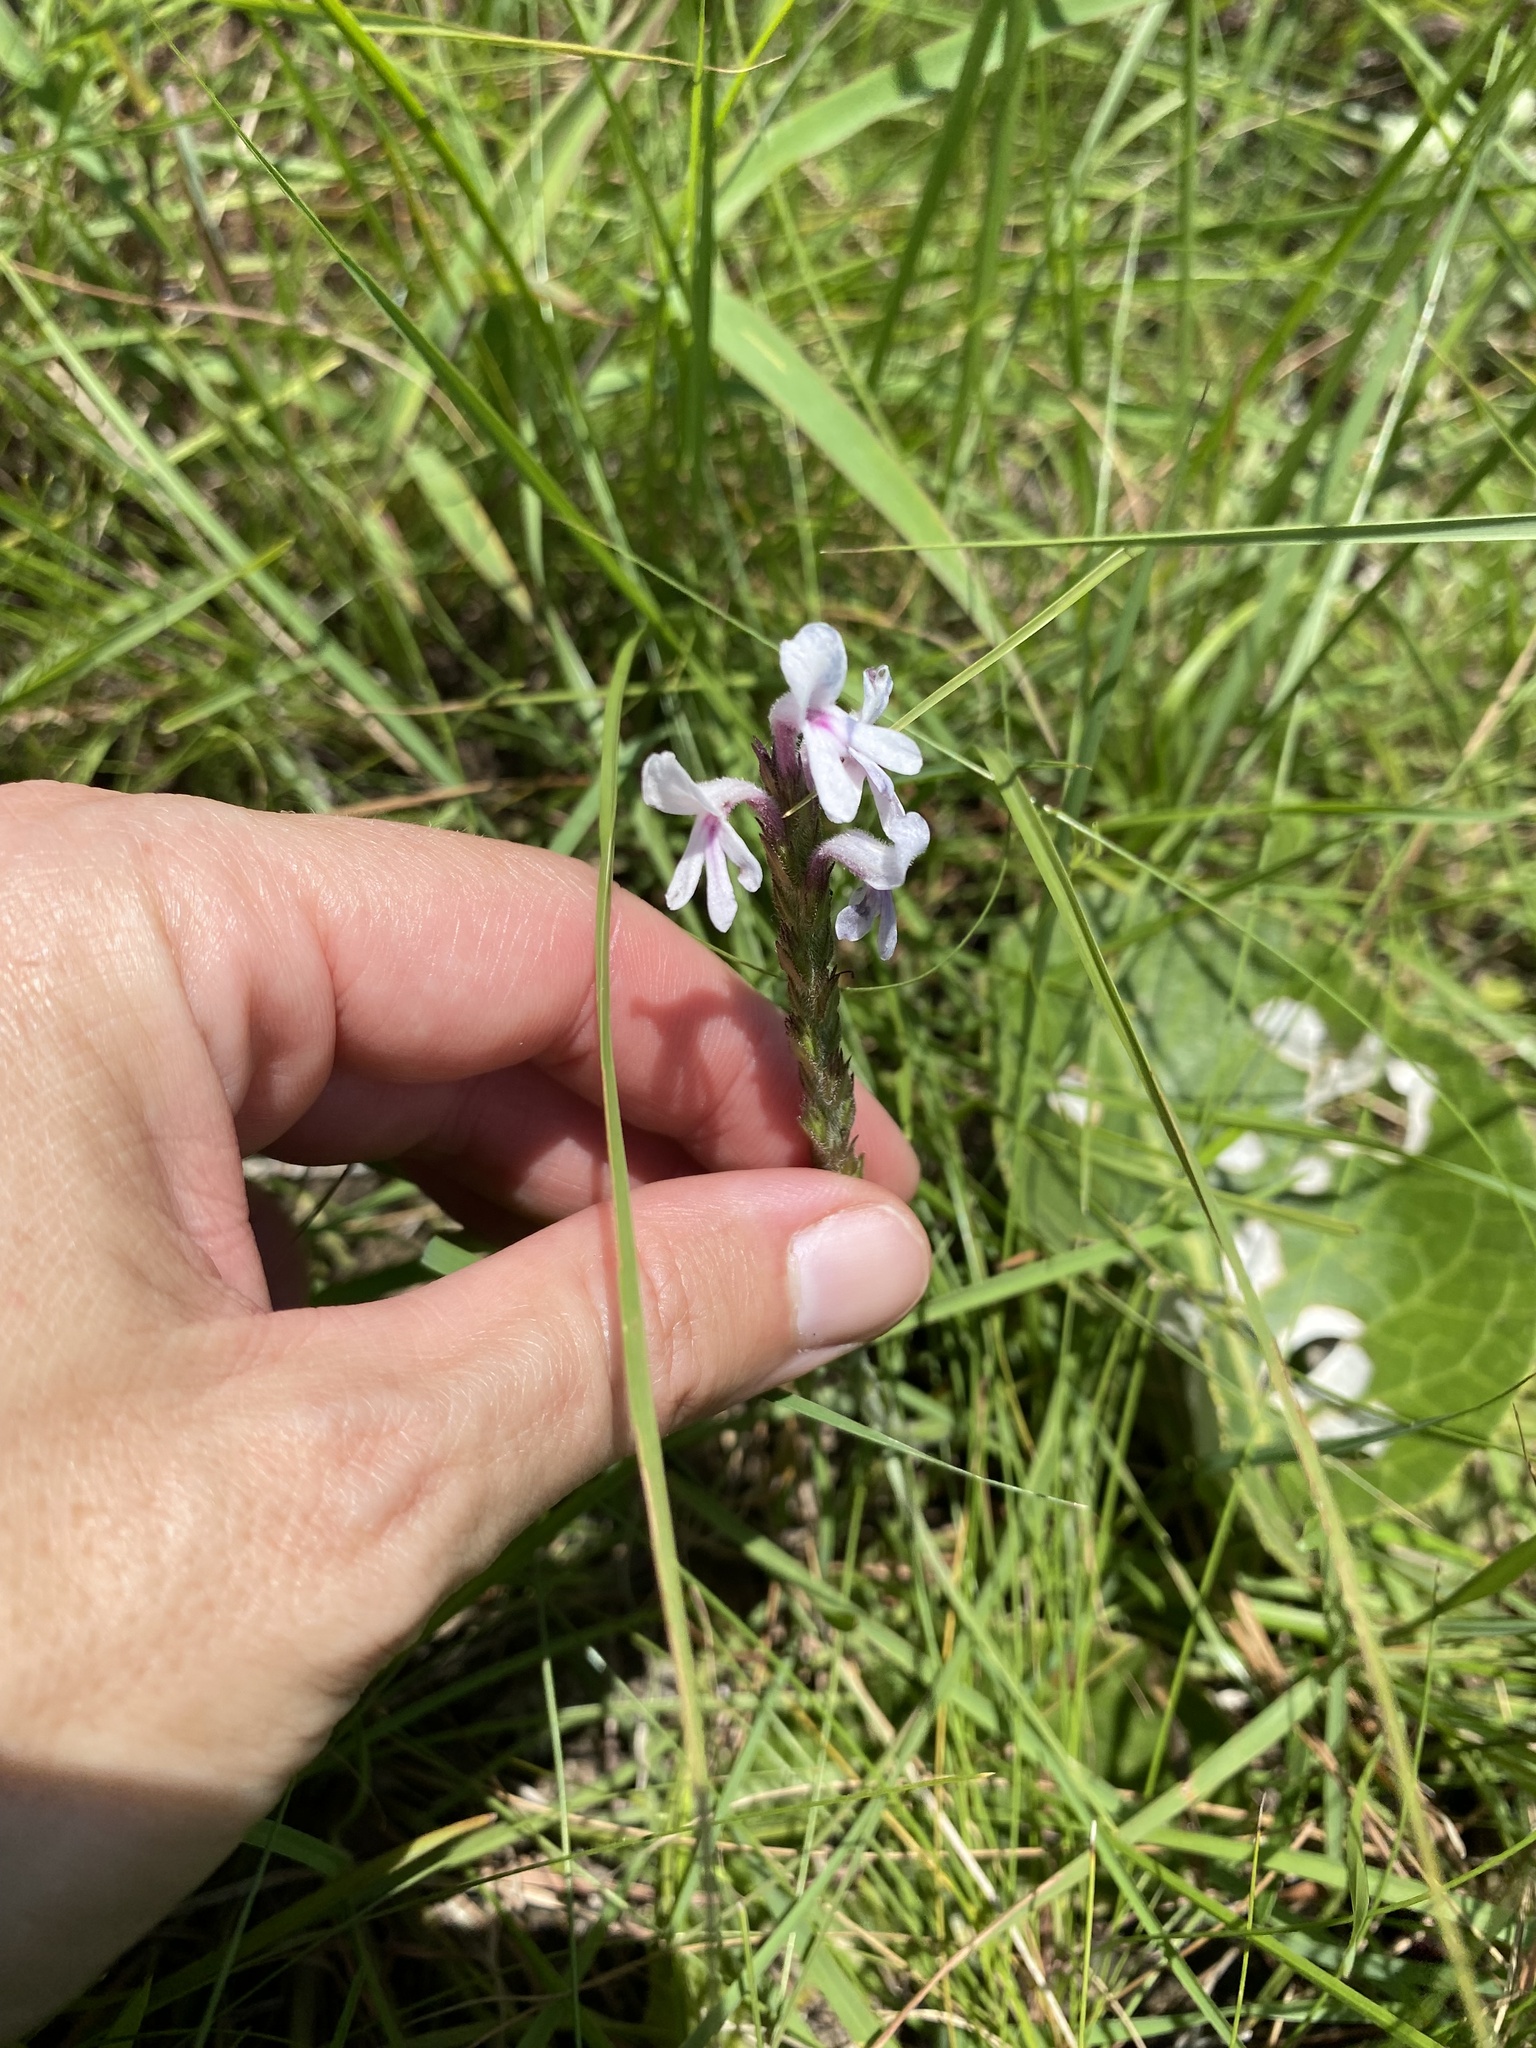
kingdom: Plantae
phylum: Tracheophyta
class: Magnoliopsida
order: Lamiales
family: Orobanchaceae
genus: Striga
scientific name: Striga bilabiata
